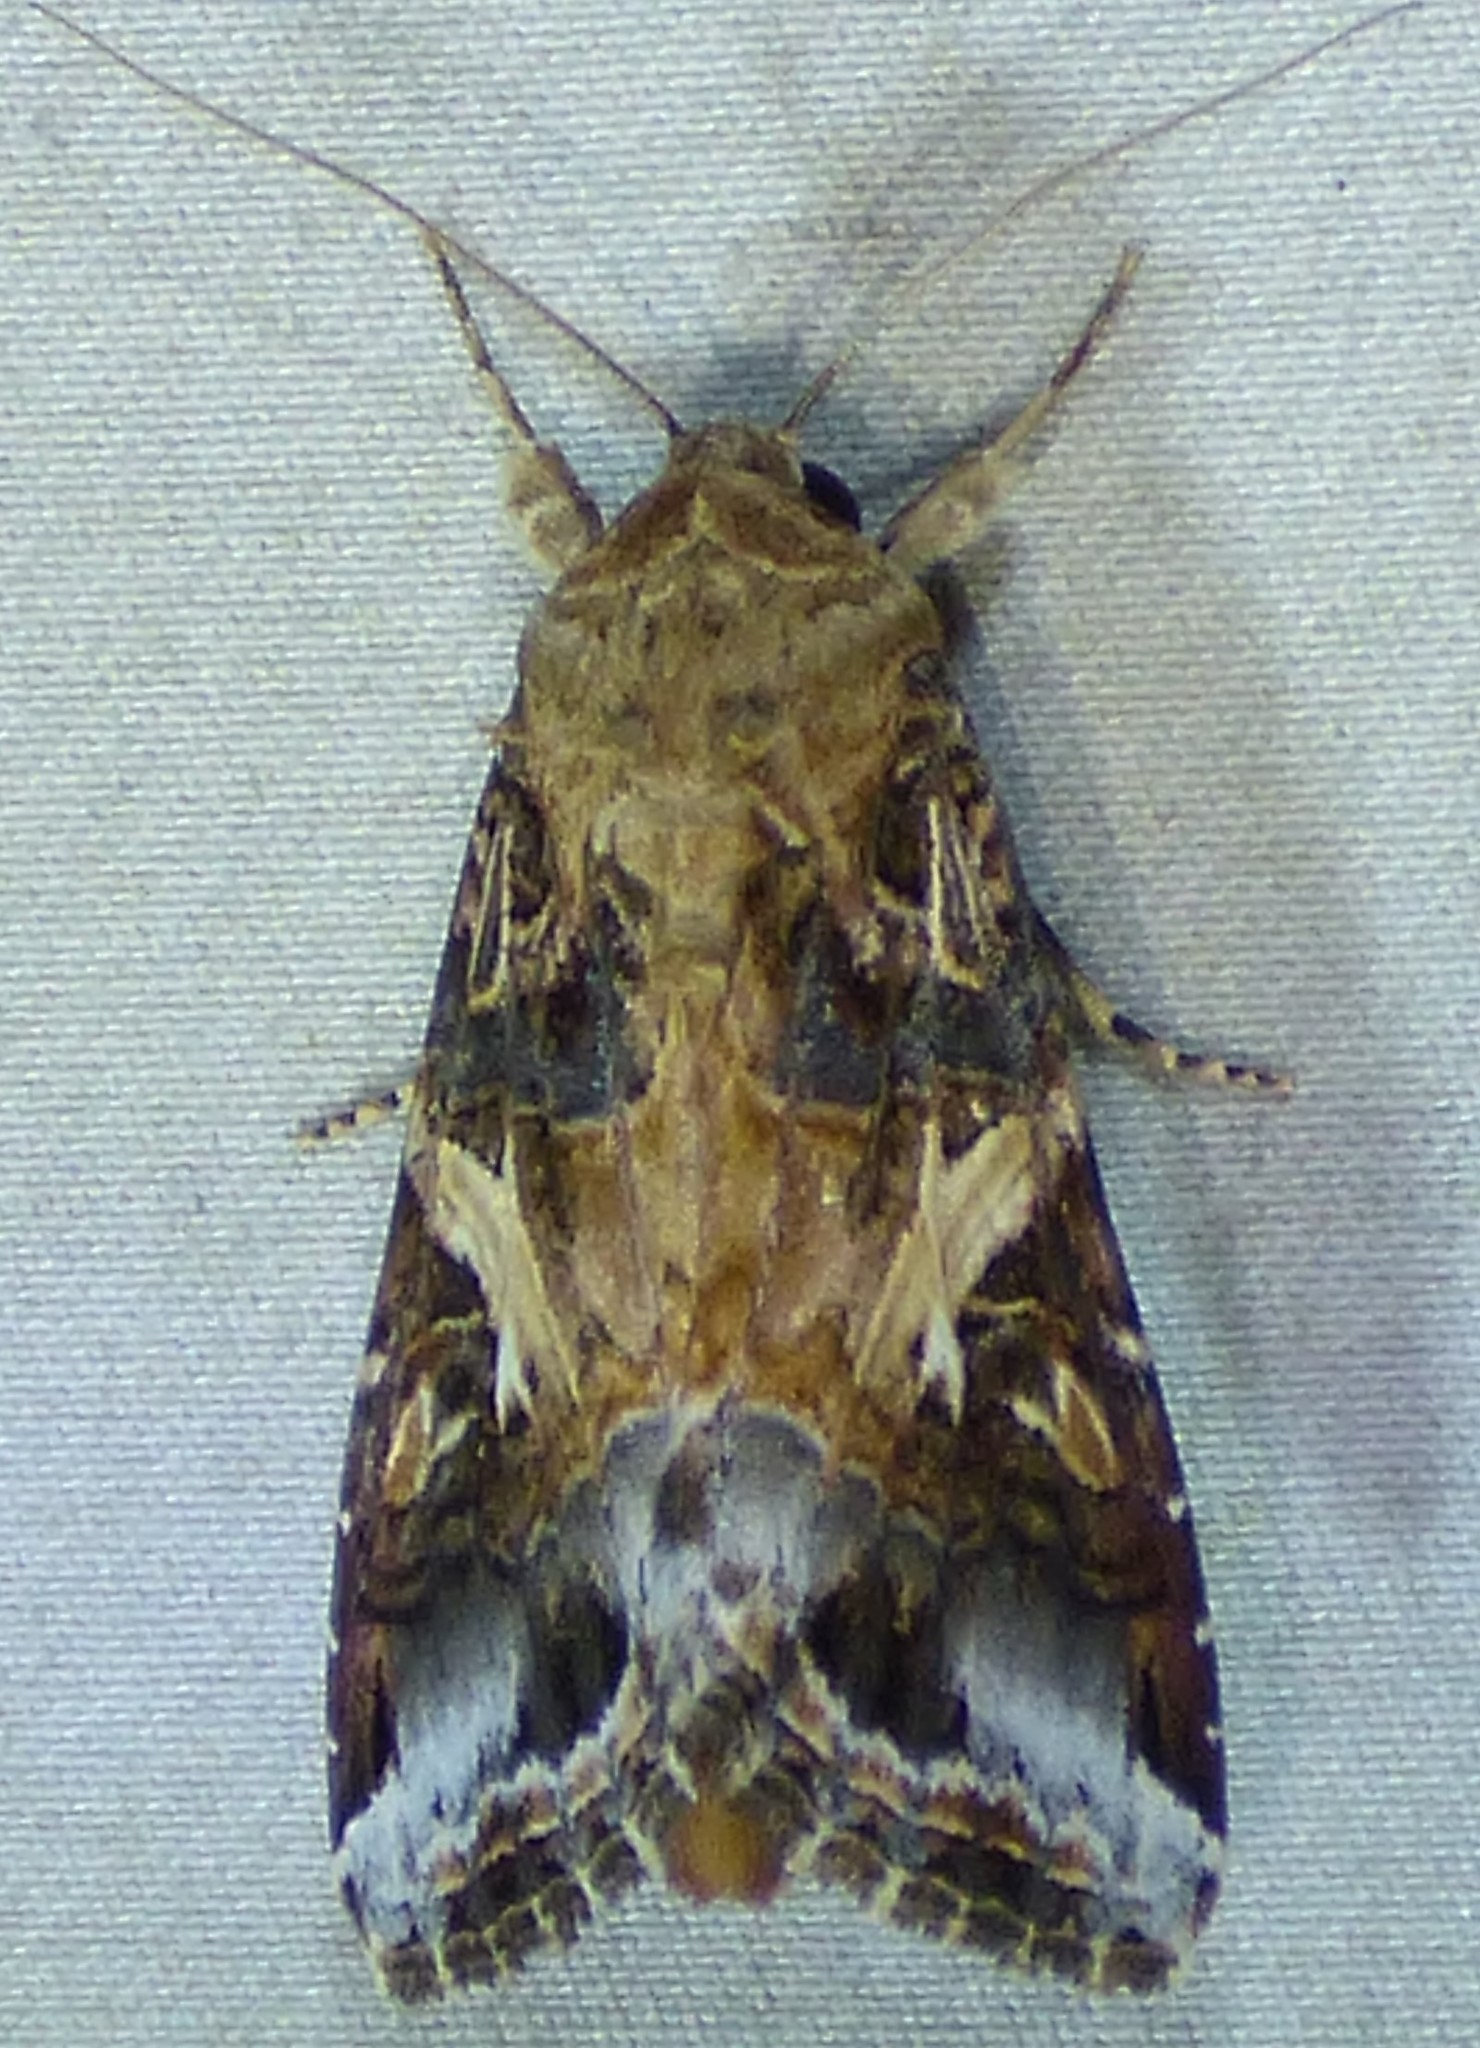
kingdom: Animalia
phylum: Arthropoda
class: Insecta
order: Lepidoptera
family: Noctuidae
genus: Spodoptera
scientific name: Spodoptera ornithogalli
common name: Yellow-striped armyworm
